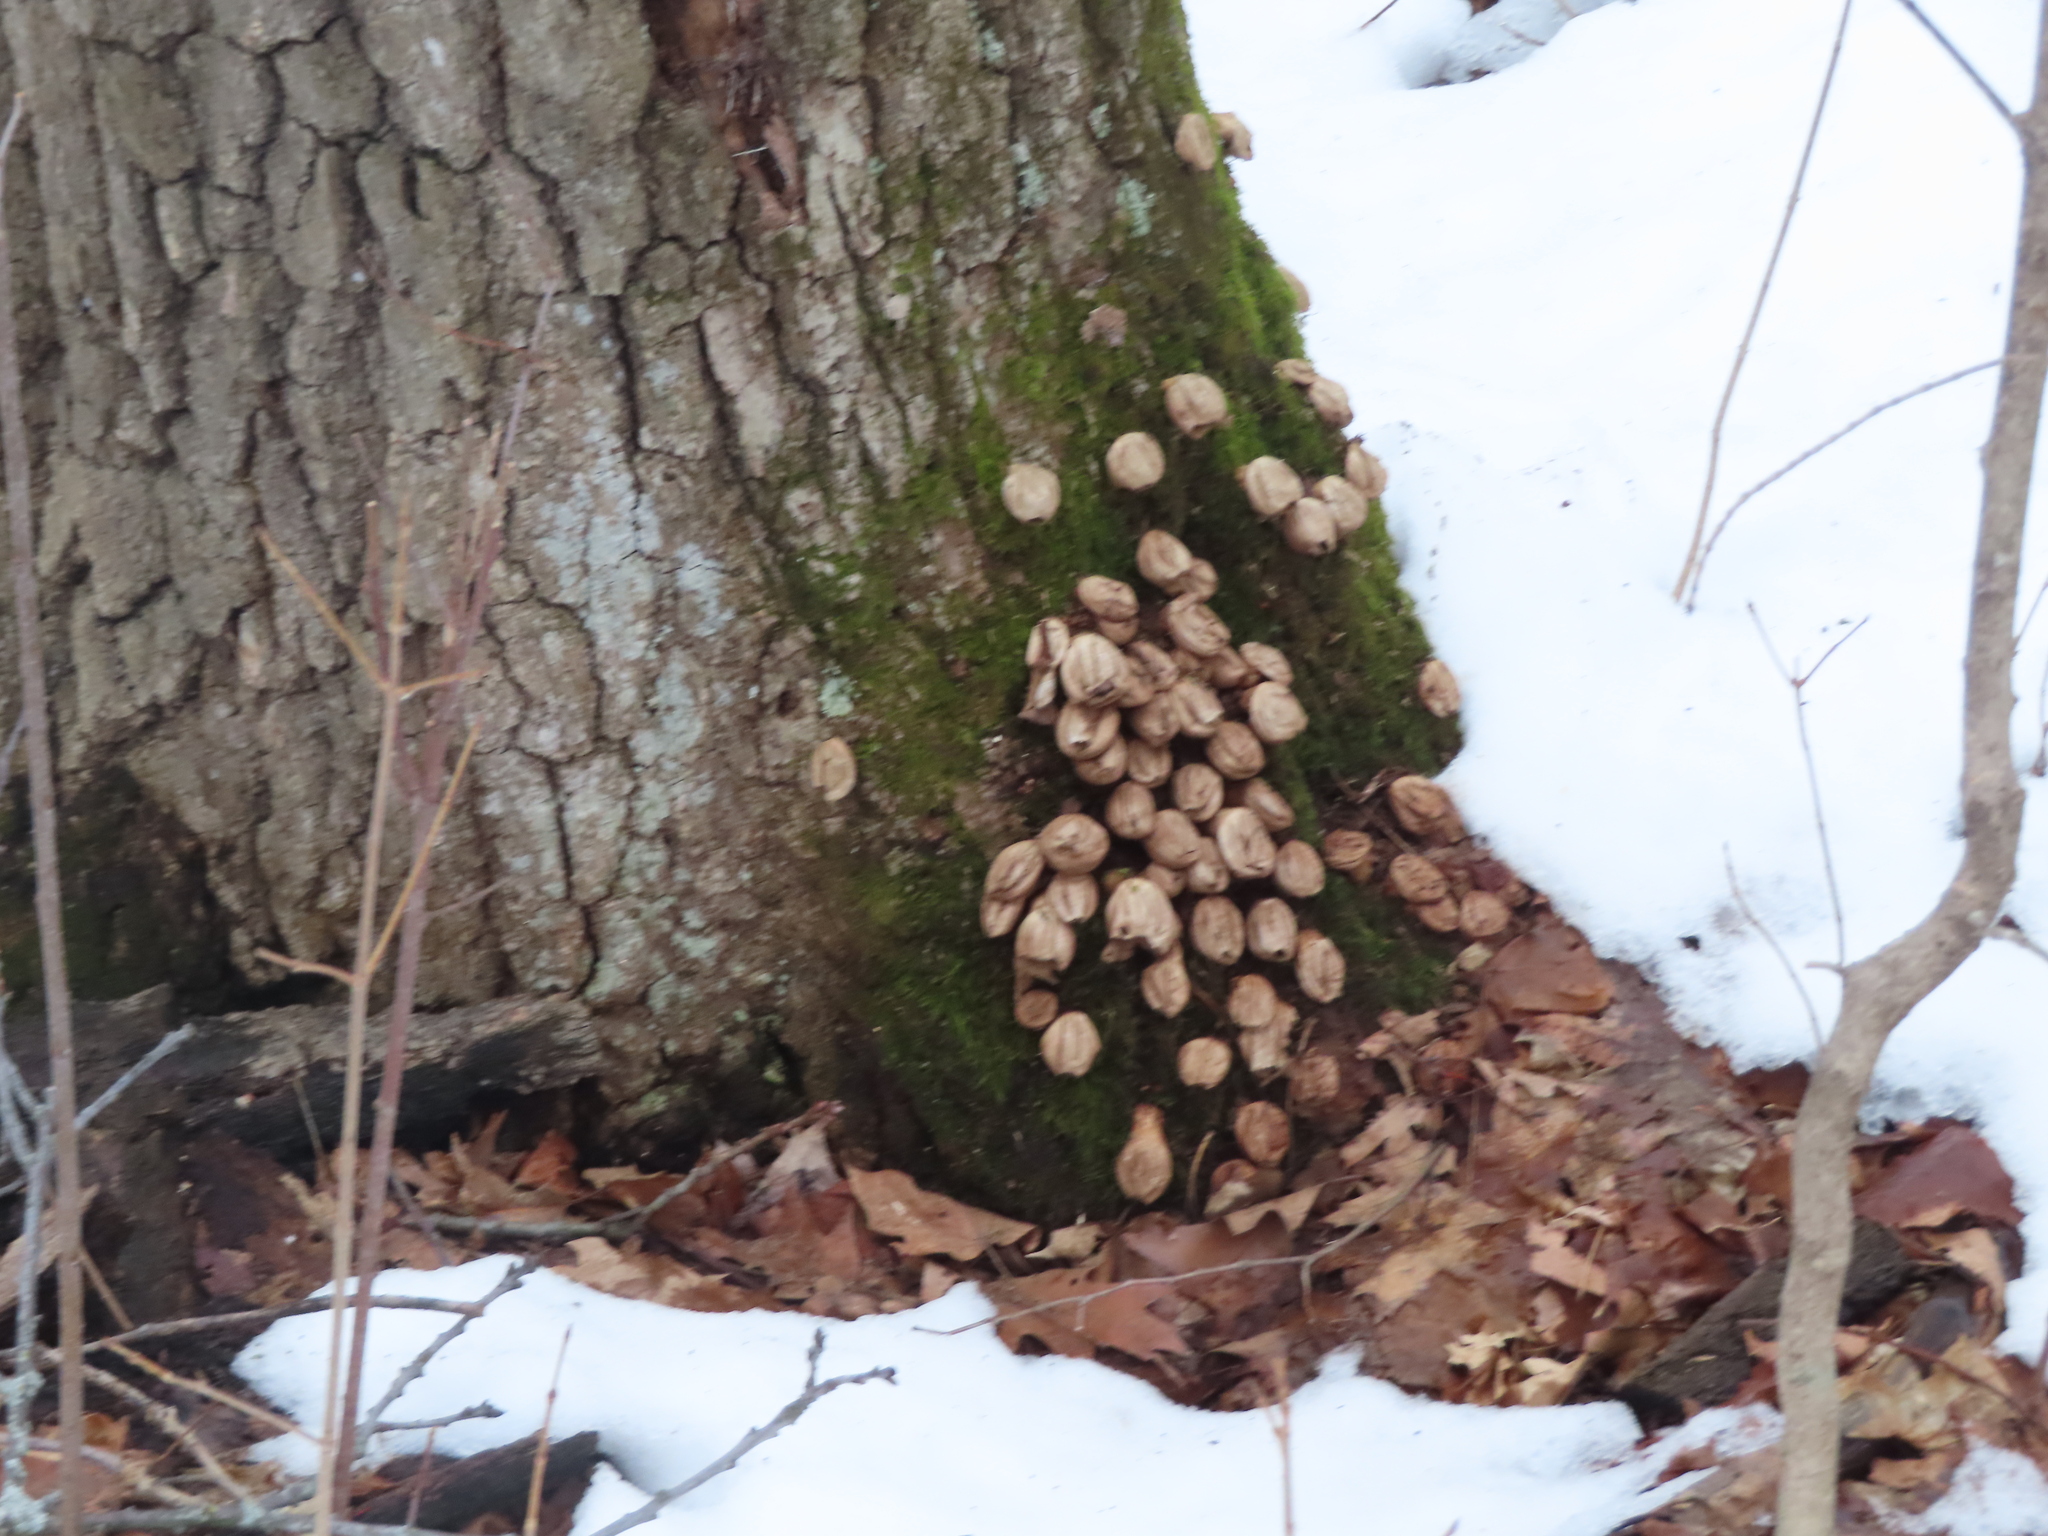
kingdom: Fungi
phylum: Basidiomycota
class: Agaricomycetes
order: Agaricales
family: Lycoperdaceae
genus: Apioperdon
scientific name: Apioperdon pyriforme
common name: Pear-shaped puffball
